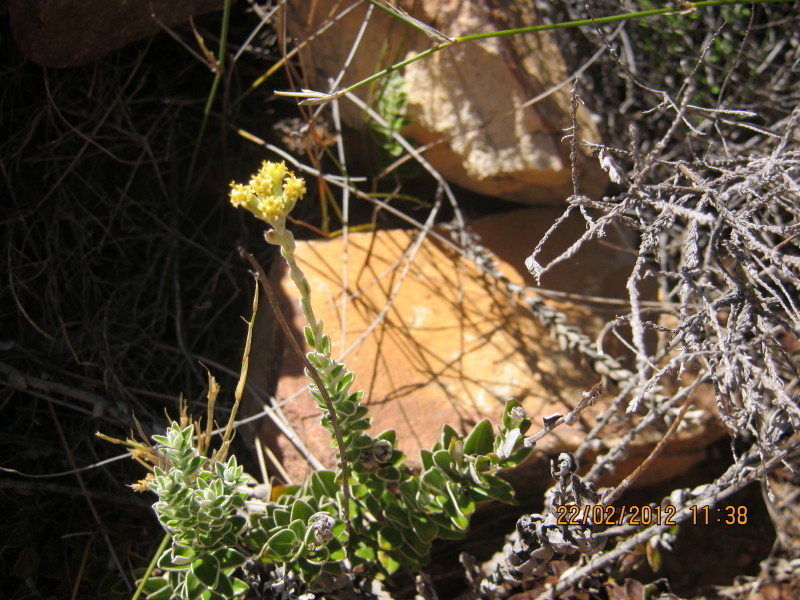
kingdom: Plantae
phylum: Tracheophyta
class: Magnoliopsida
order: Asterales
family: Asteraceae
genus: Senecio
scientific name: Senecio pauciflosculosus
